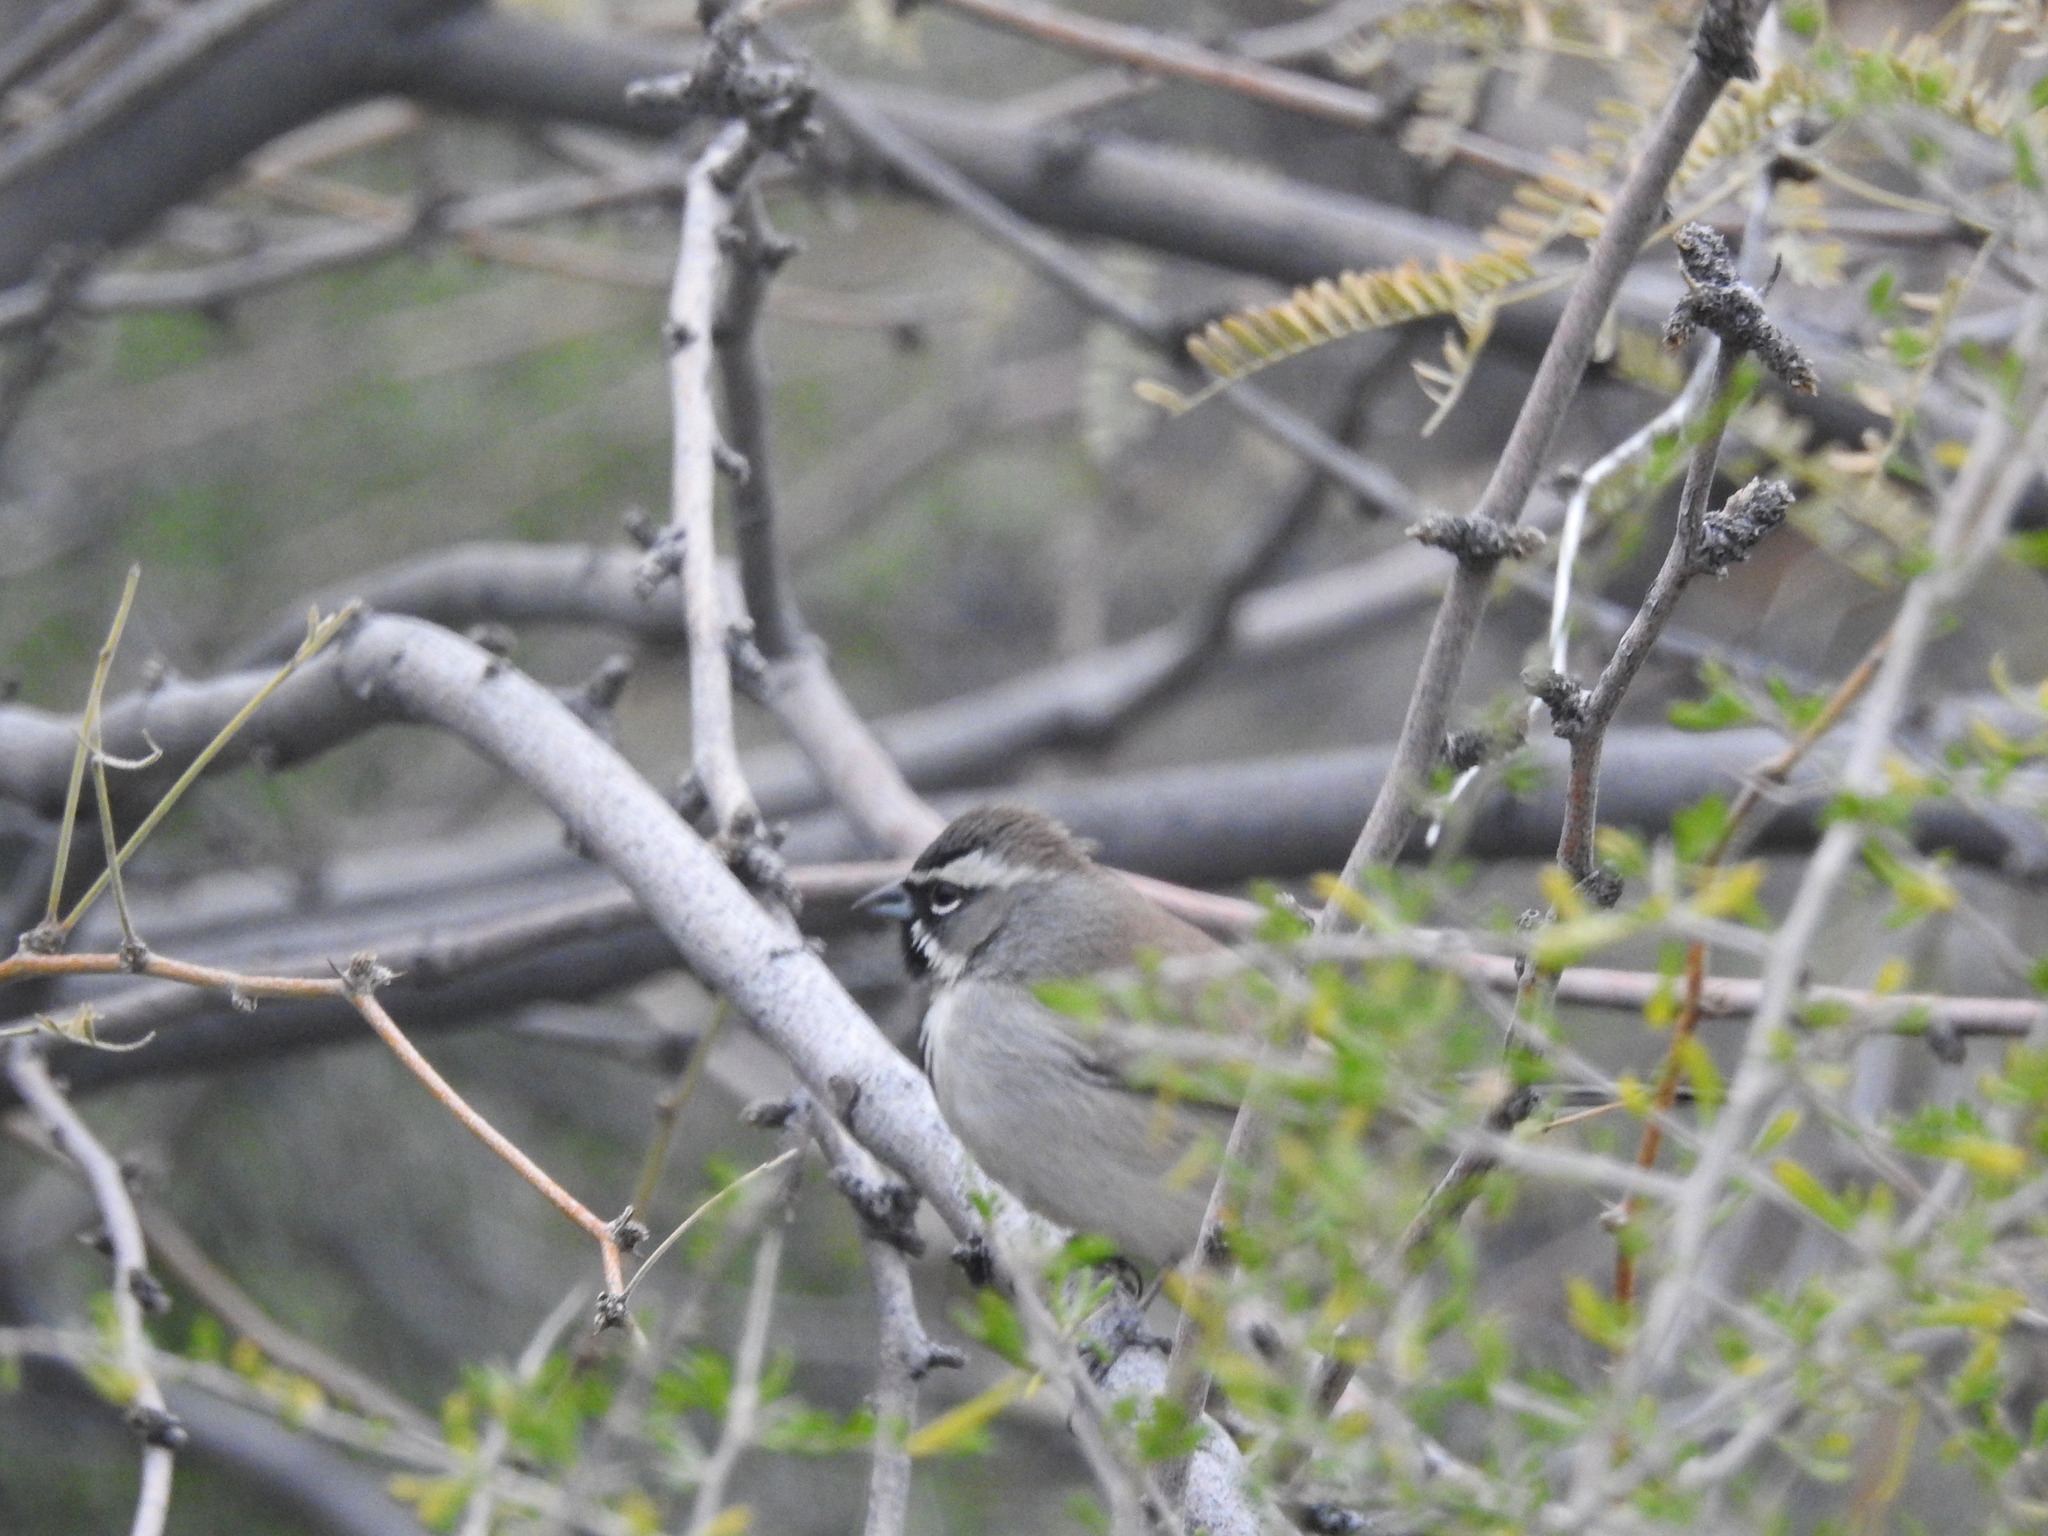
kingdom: Animalia
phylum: Chordata
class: Aves
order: Passeriformes
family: Passerellidae
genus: Amphispiza
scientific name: Amphispiza bilineata
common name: Black-throated sparrow
